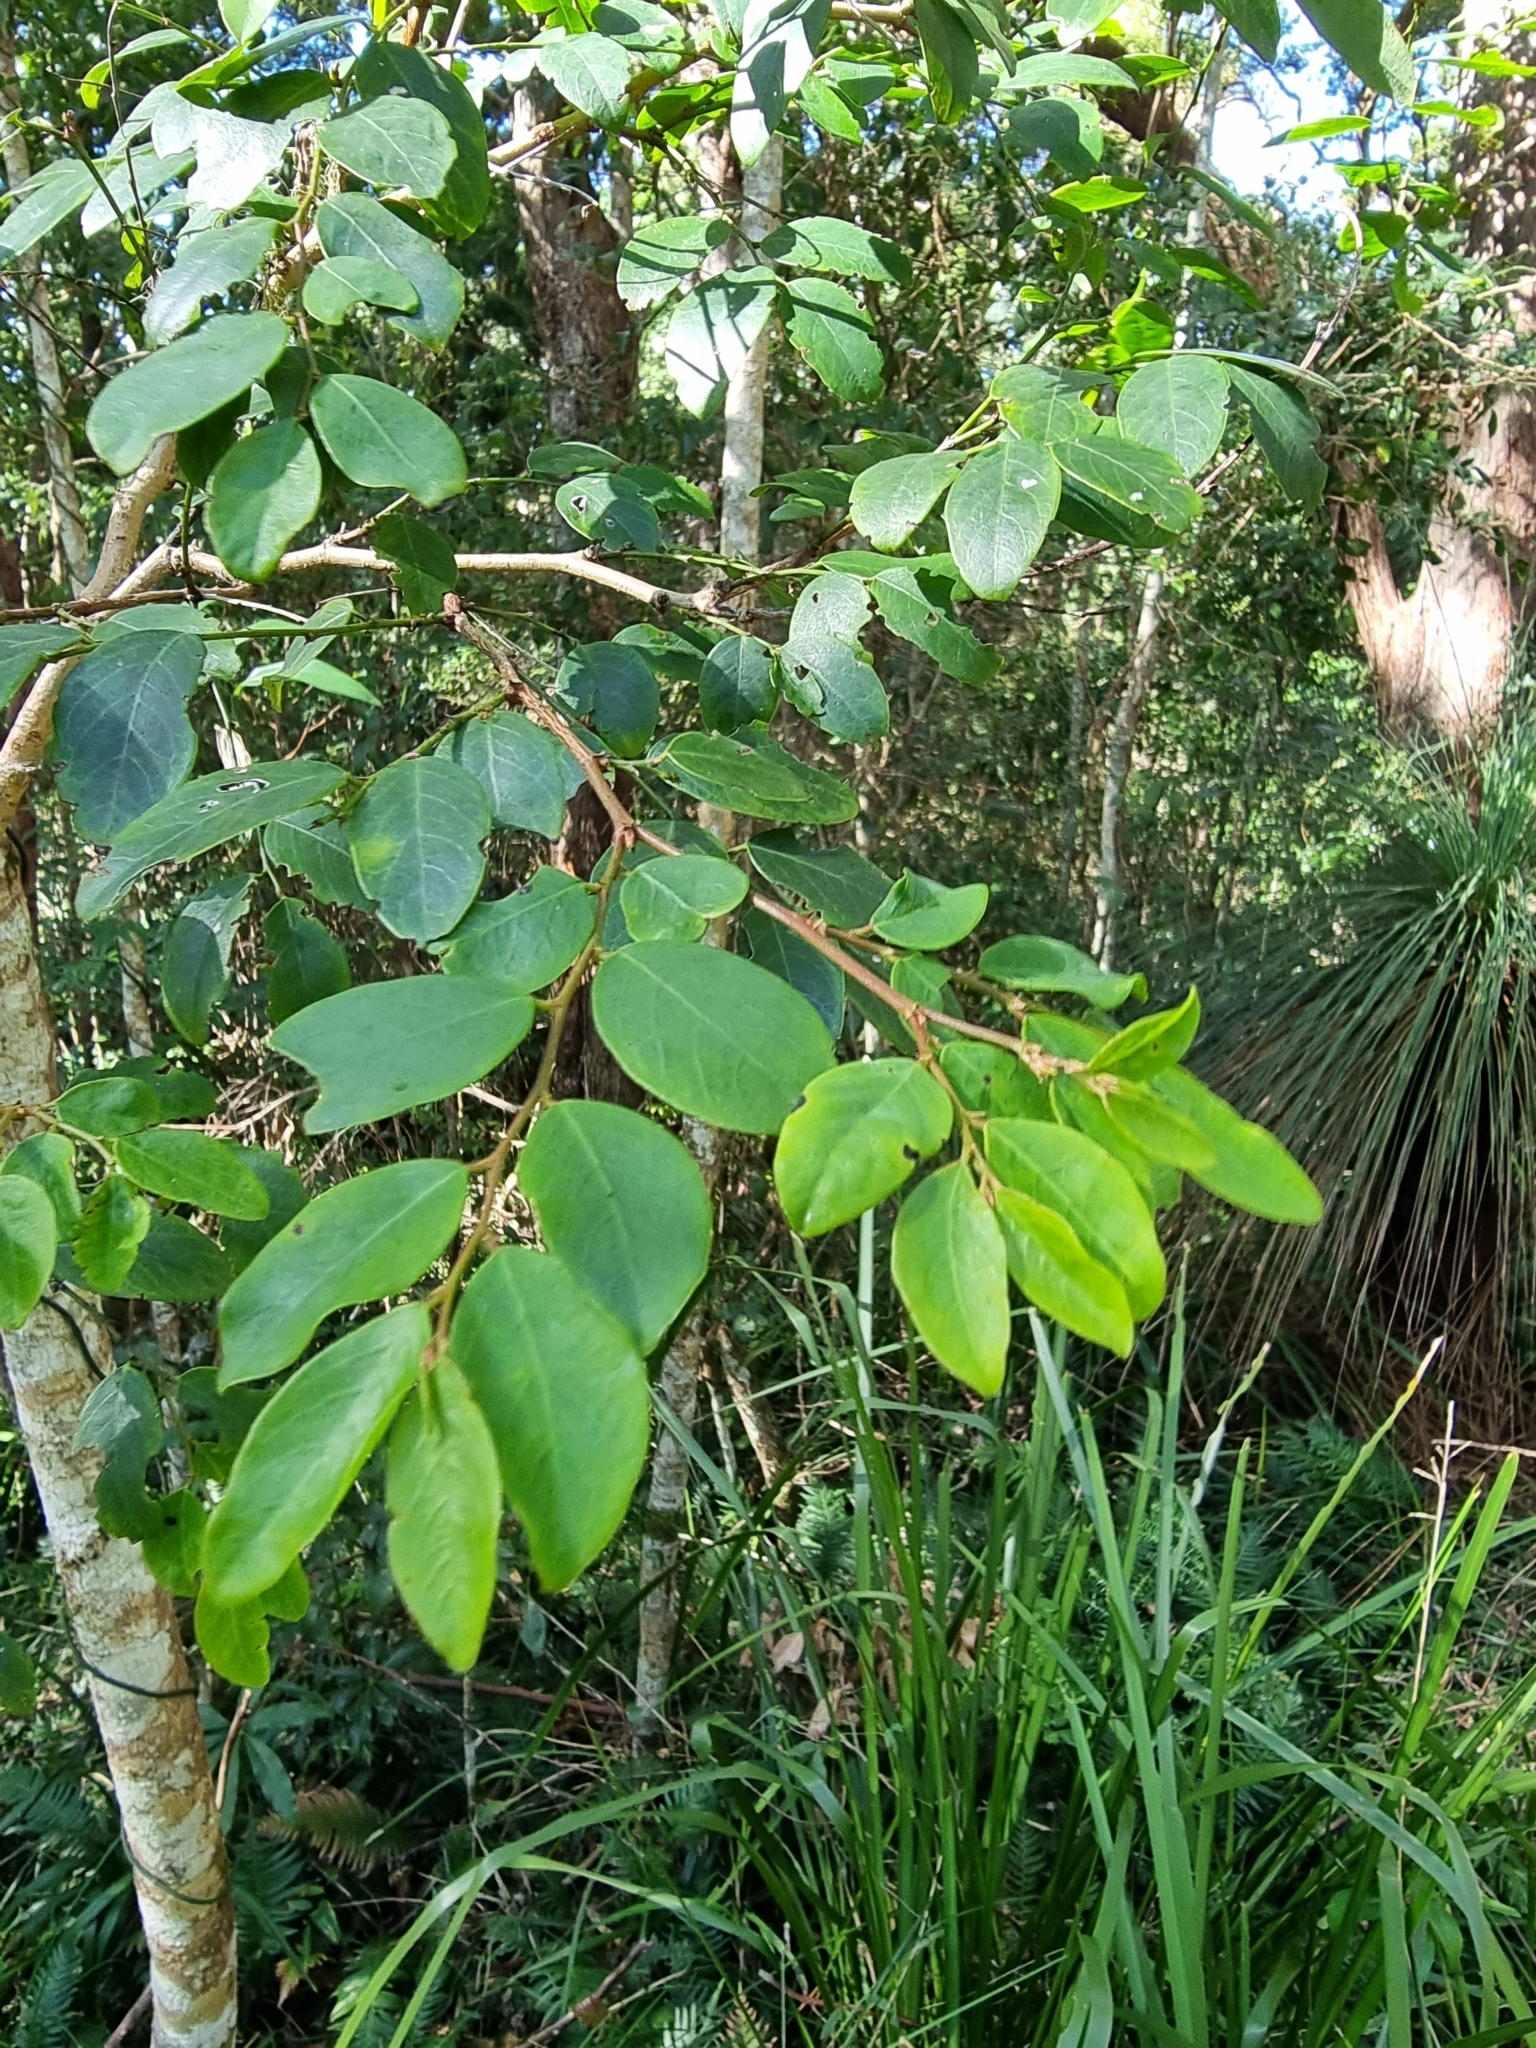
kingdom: Plantae
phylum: Tracheophyta
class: Magnoliopsida
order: Malpighiales
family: Phyllanthaceae
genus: Breynia
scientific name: Breynia oblongifolia
